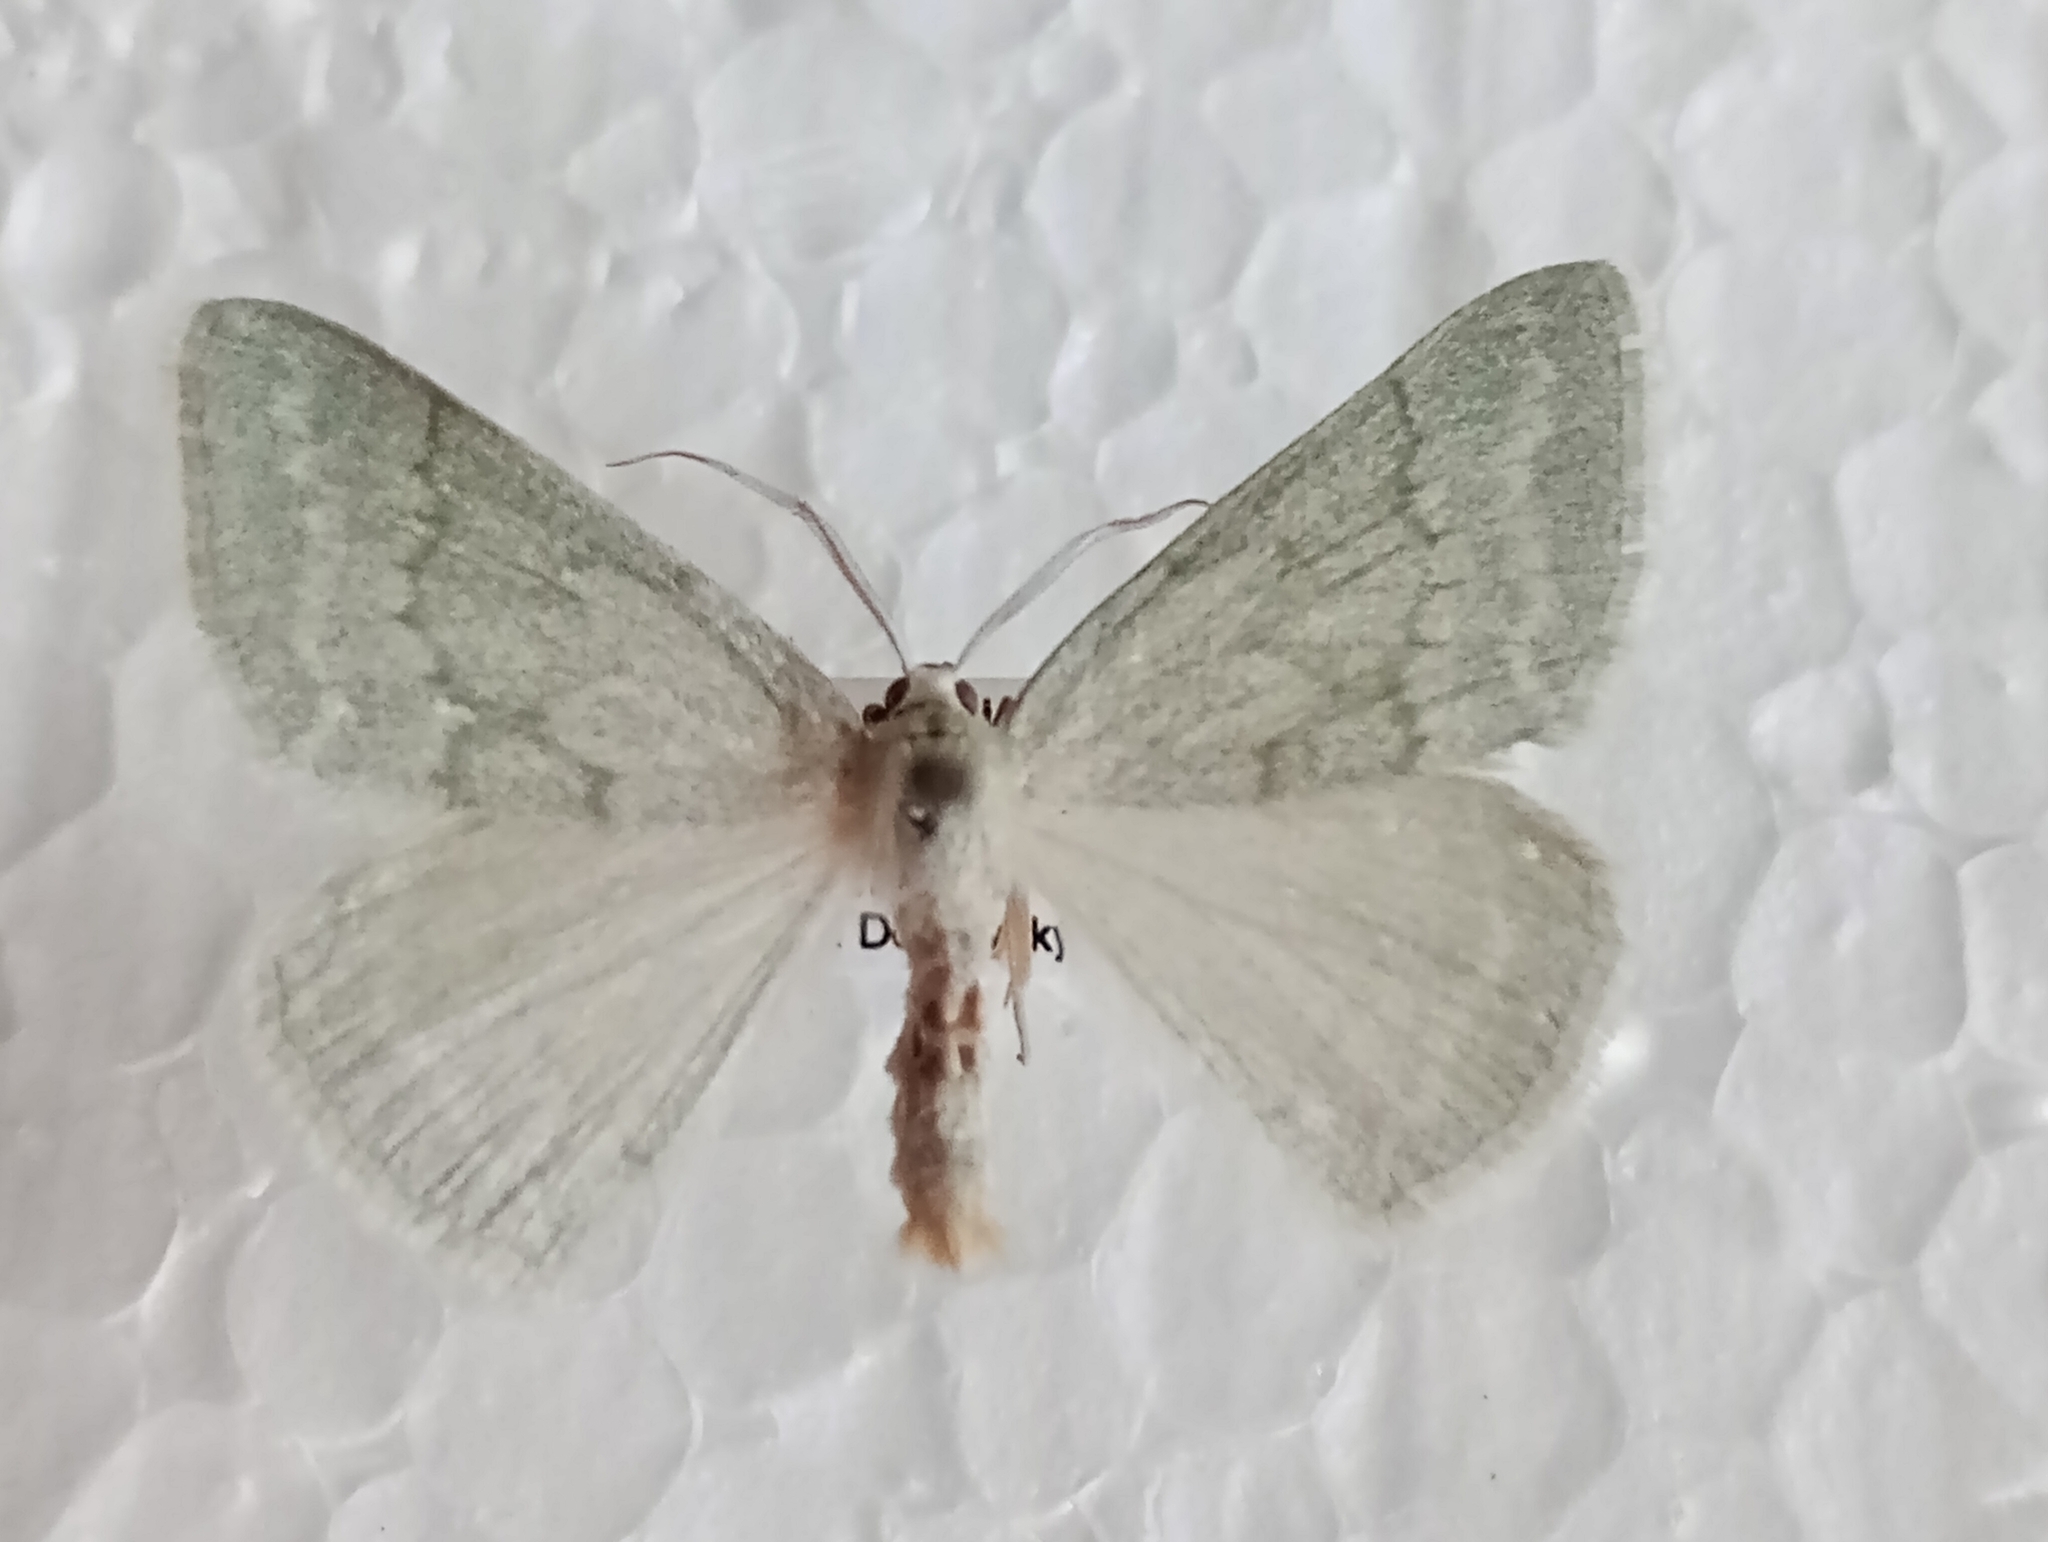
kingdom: Animalia
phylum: Arthropoda
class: Insecta
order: Lepidoptera
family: Geometridae
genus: Pseudoterpna
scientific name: Pseudoterpna pruinata
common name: Grass emerald
